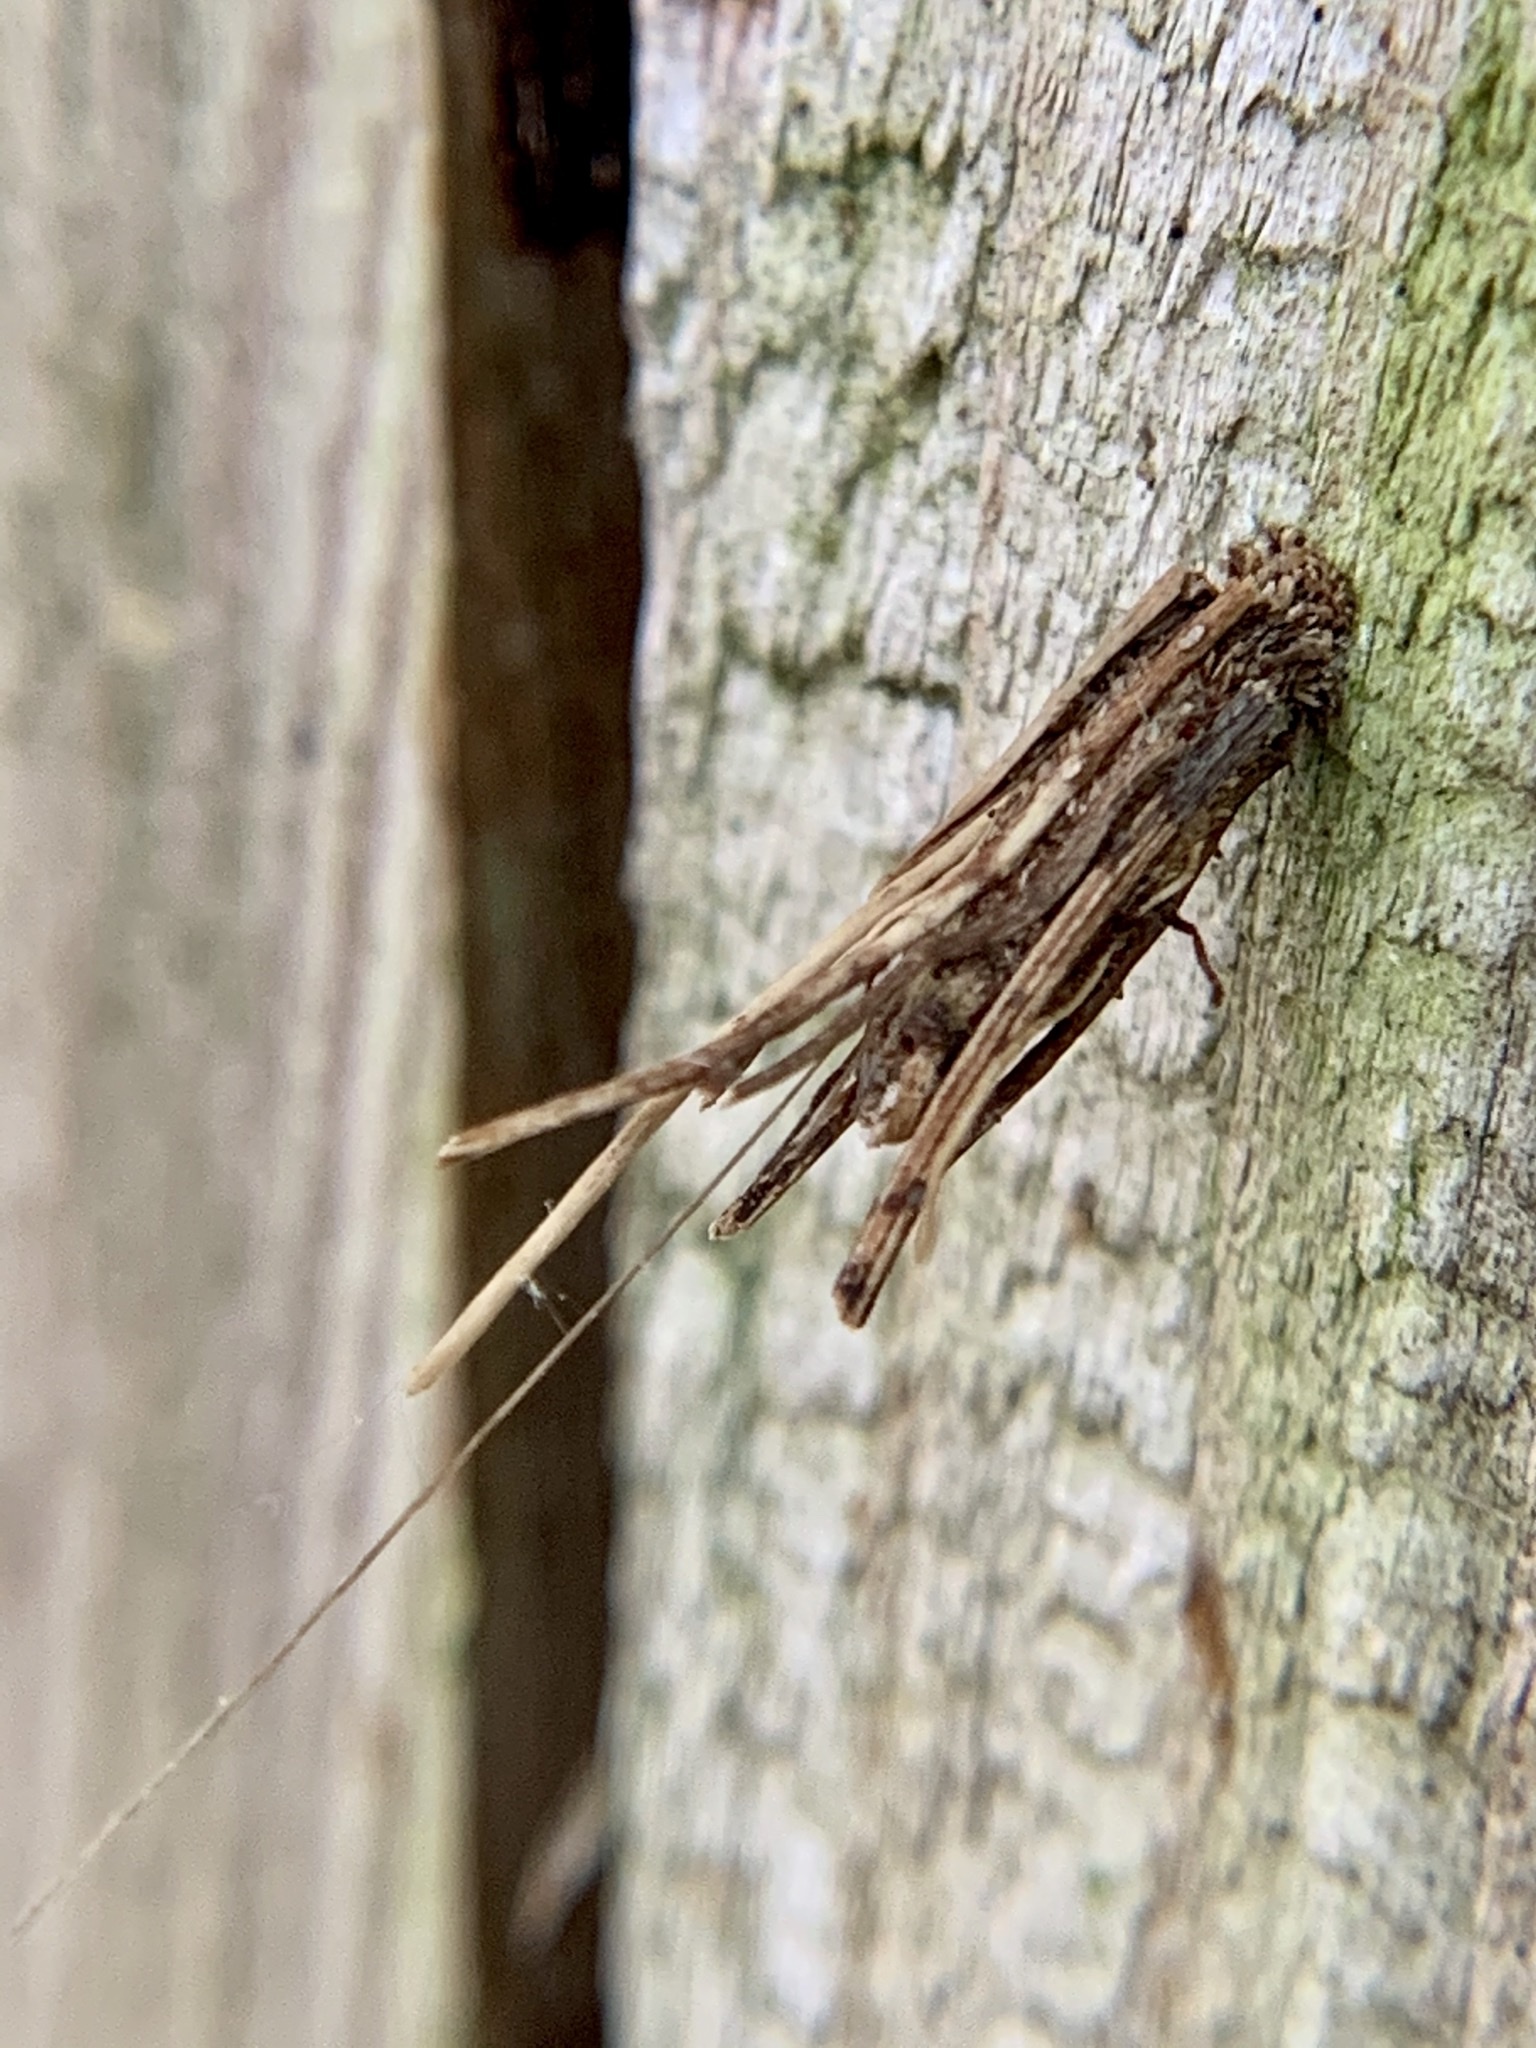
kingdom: Animalia
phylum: Arthropoda
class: Insecta
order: Lepidoptera
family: Psychidae
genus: Psyche
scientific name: Psyche casta
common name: Common sweep
